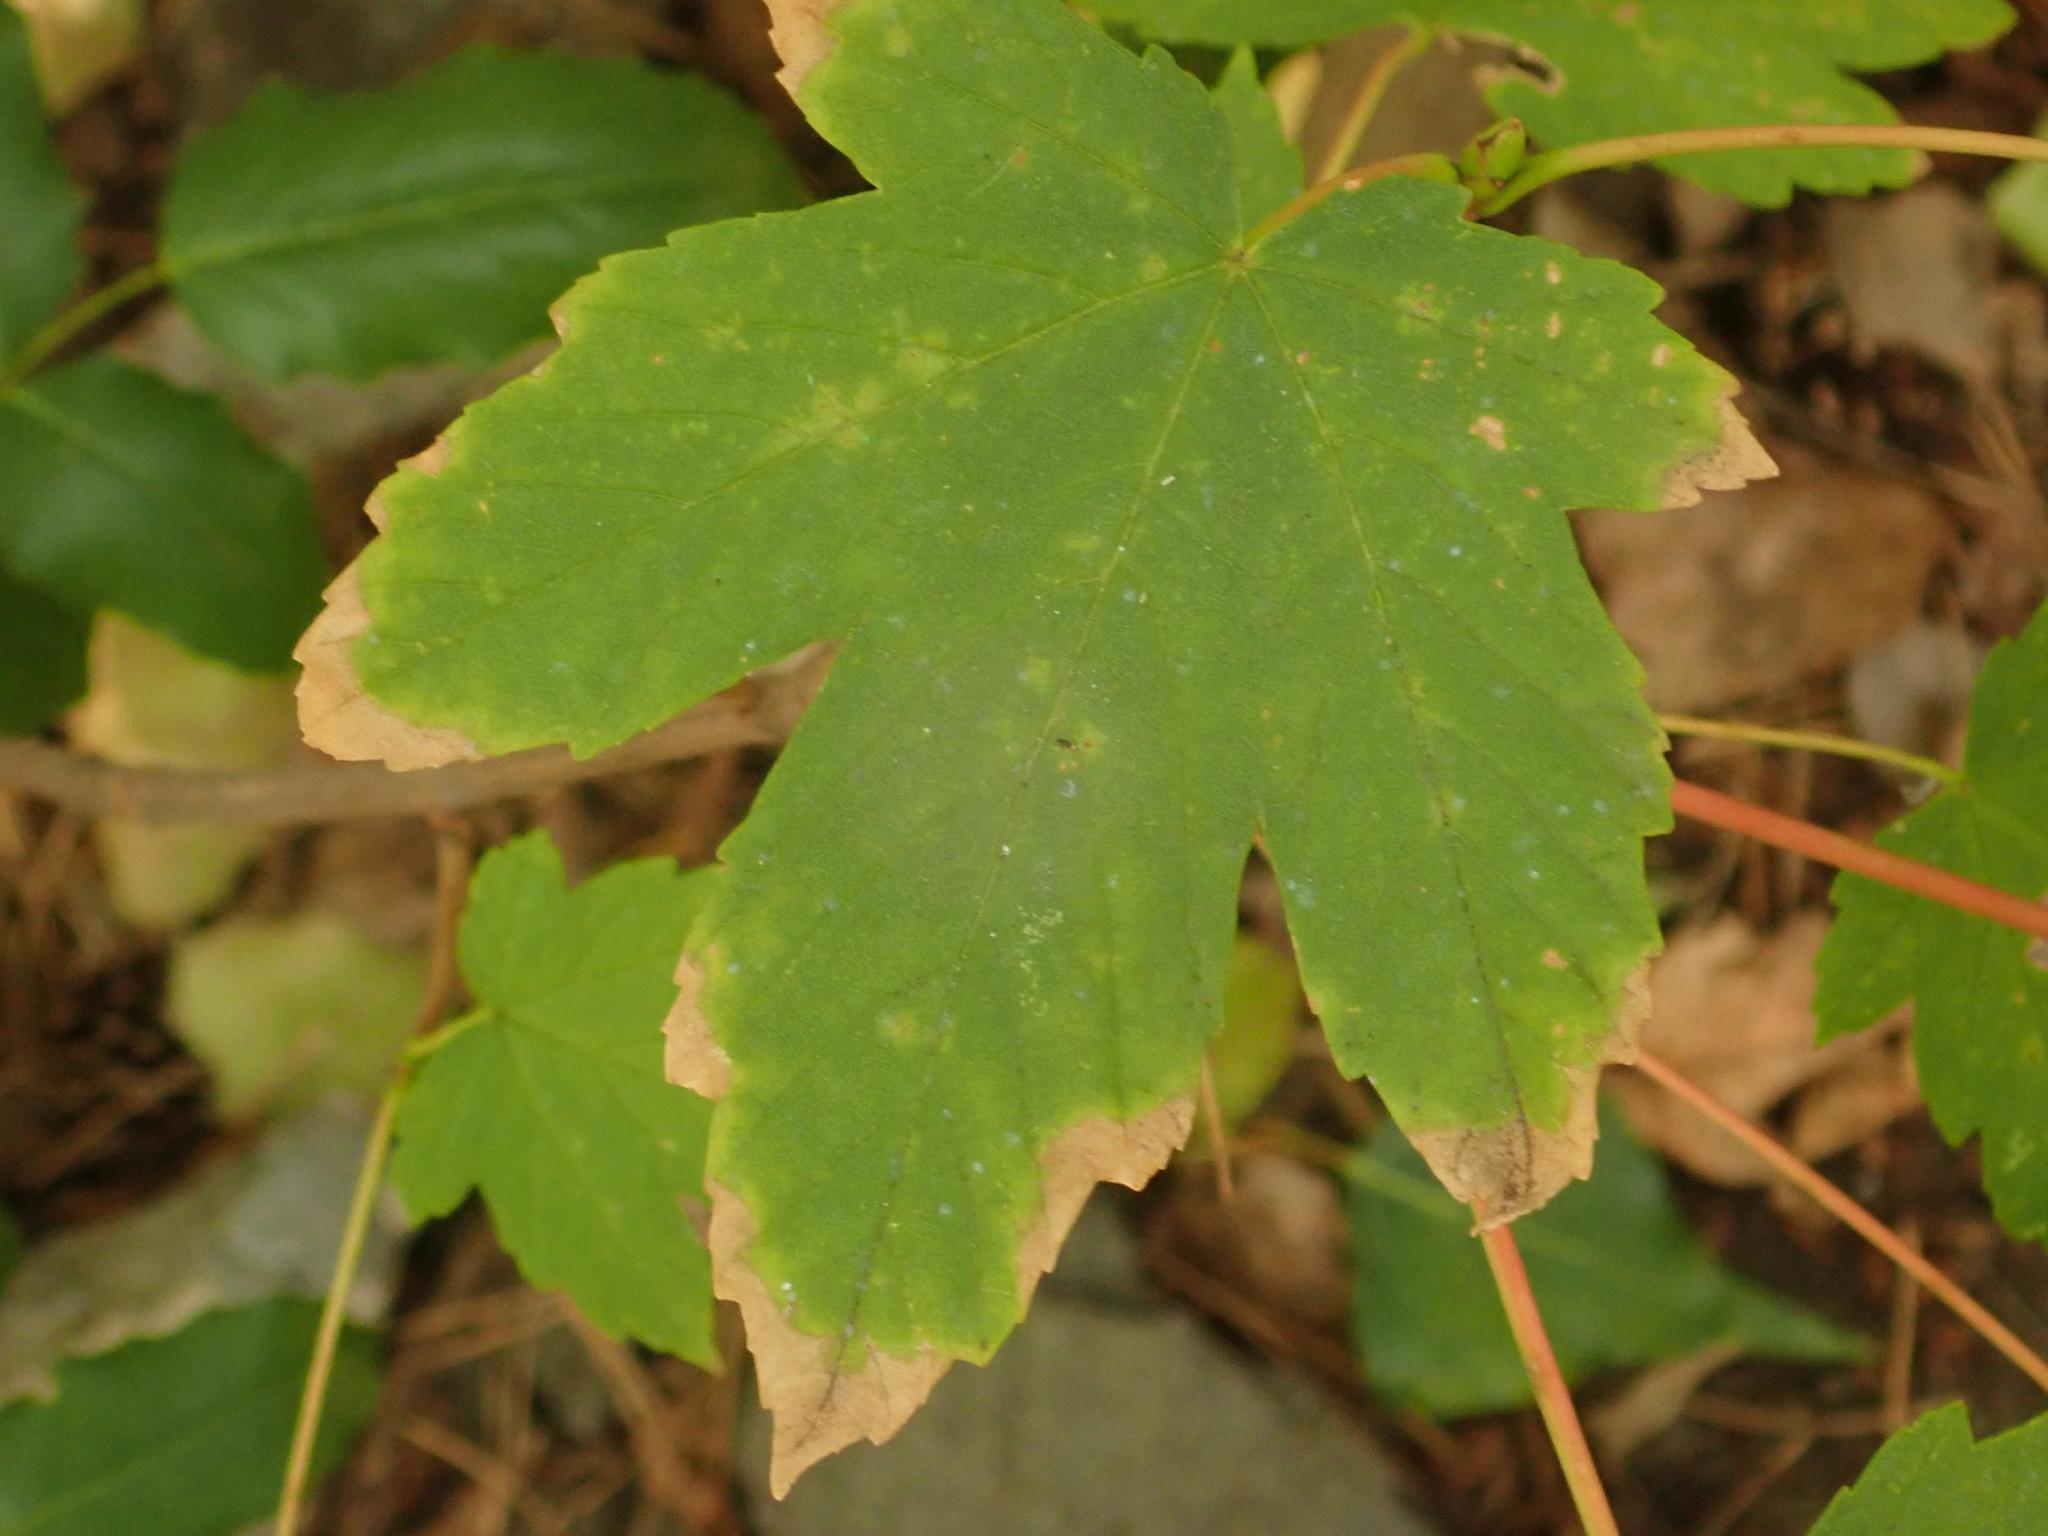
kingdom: Plantae
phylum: Tracheophyta
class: Magnoliopsida
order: Sapindales
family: Sapindaceae
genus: Acer
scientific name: Acer pseudoplatanus
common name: Sycamore
